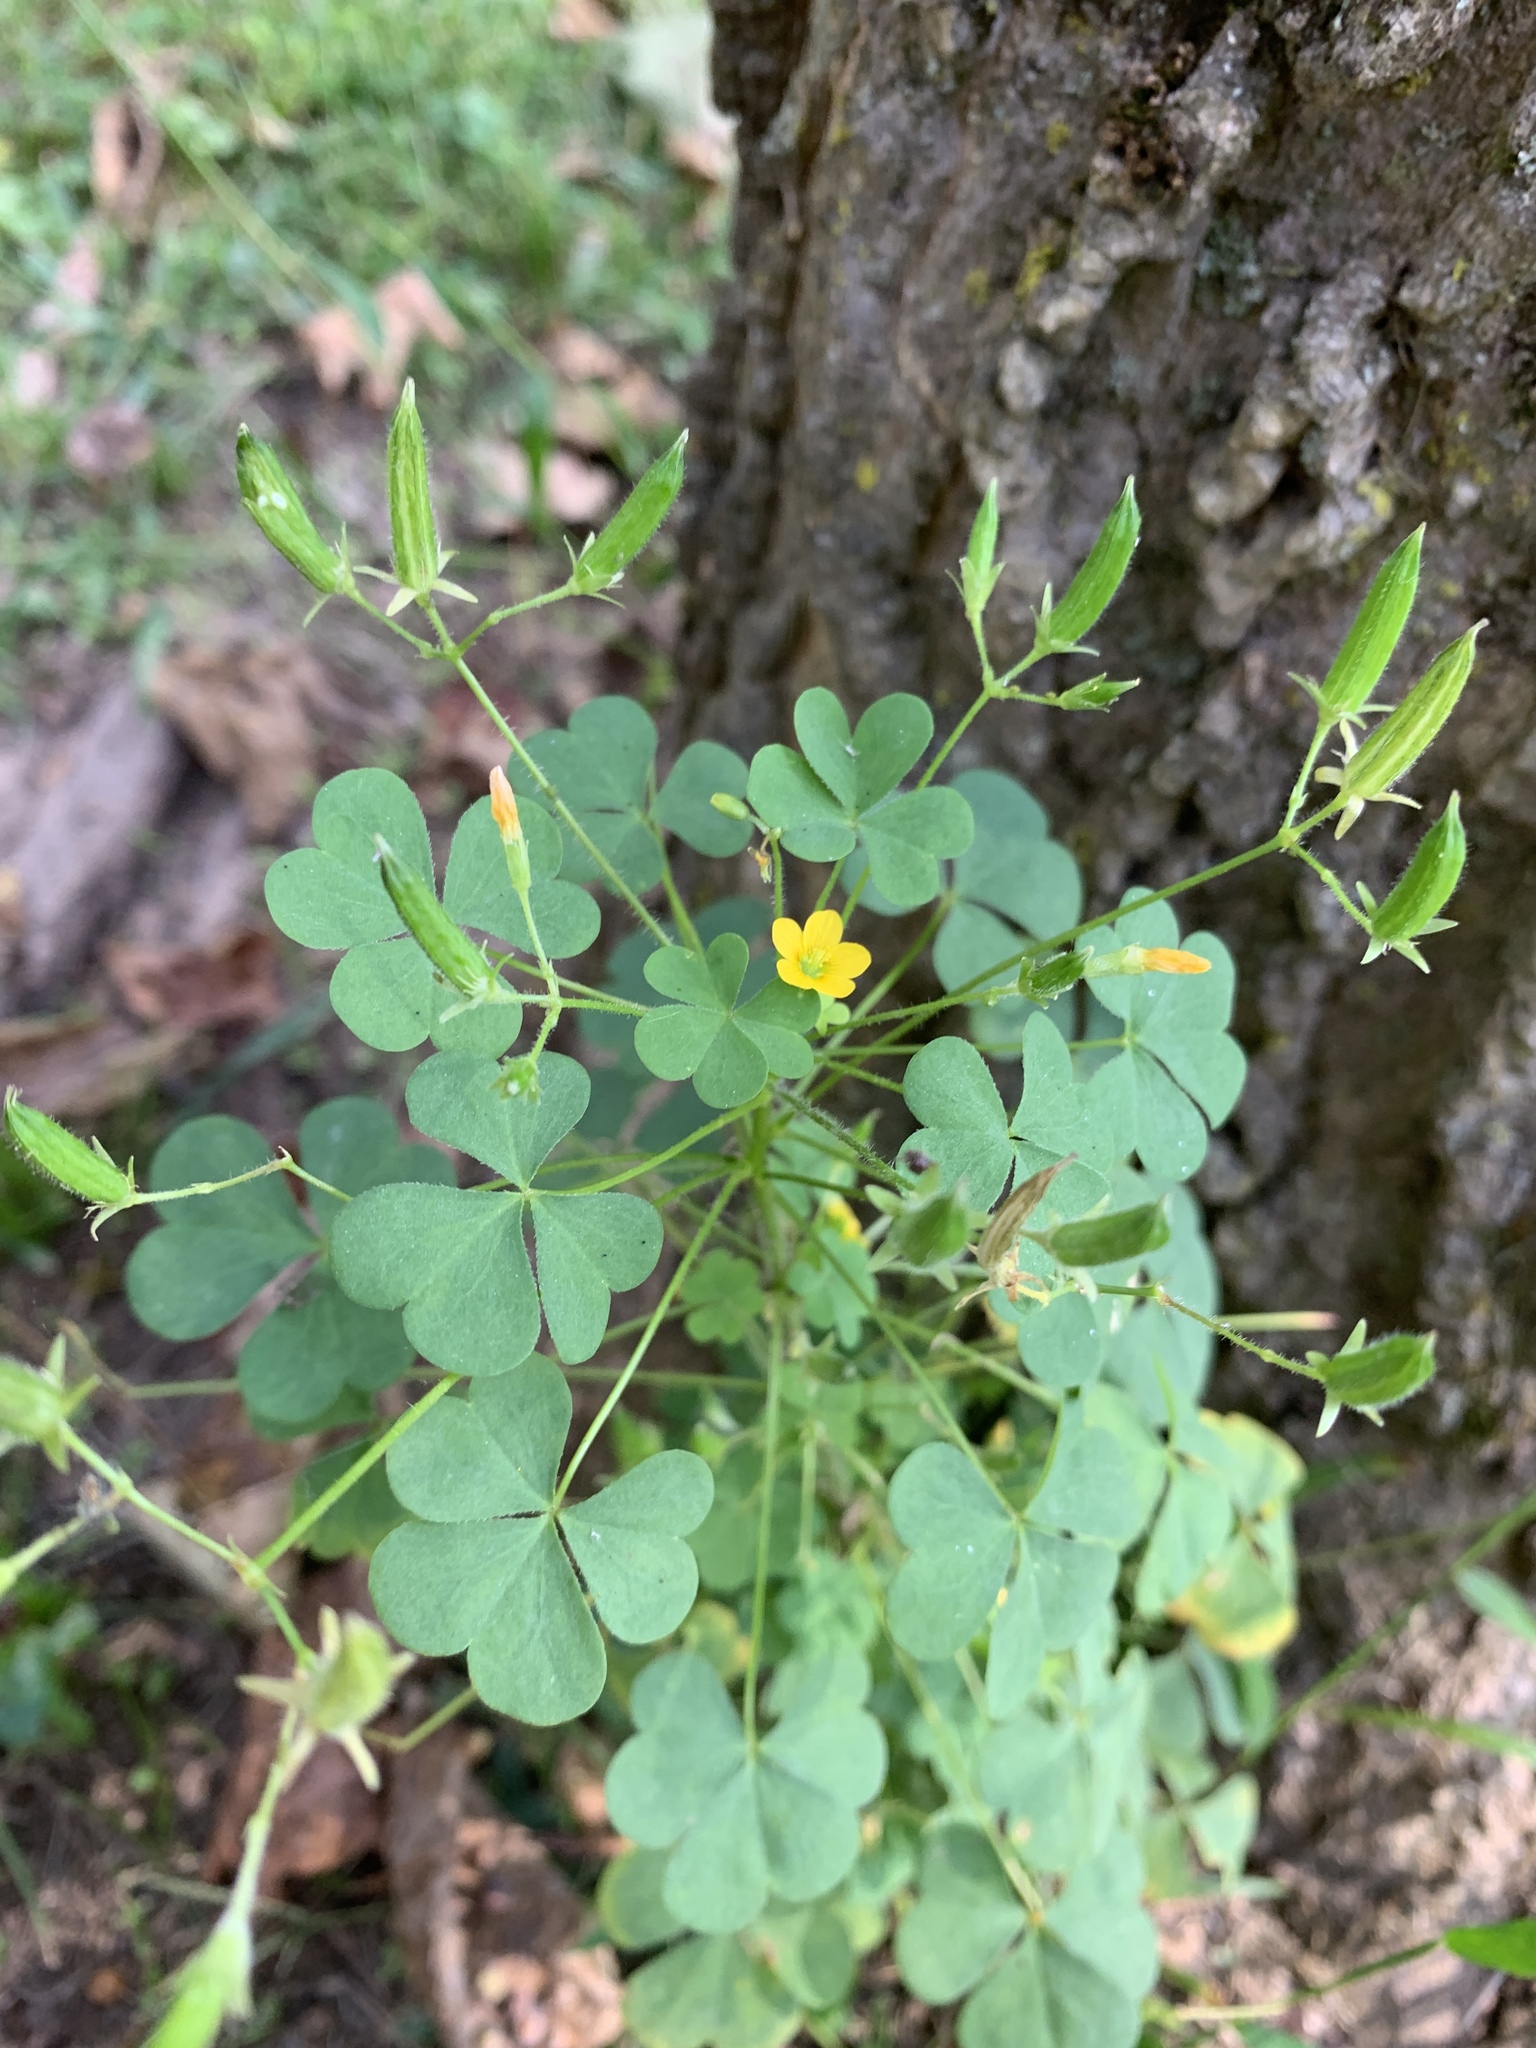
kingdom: Plantae
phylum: Tracheophyta
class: Magnoliopsida
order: Oxalidales
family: Oxalidaceae
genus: Oxalis
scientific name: Oxalis stricta
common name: Upright yellow-sorrel
